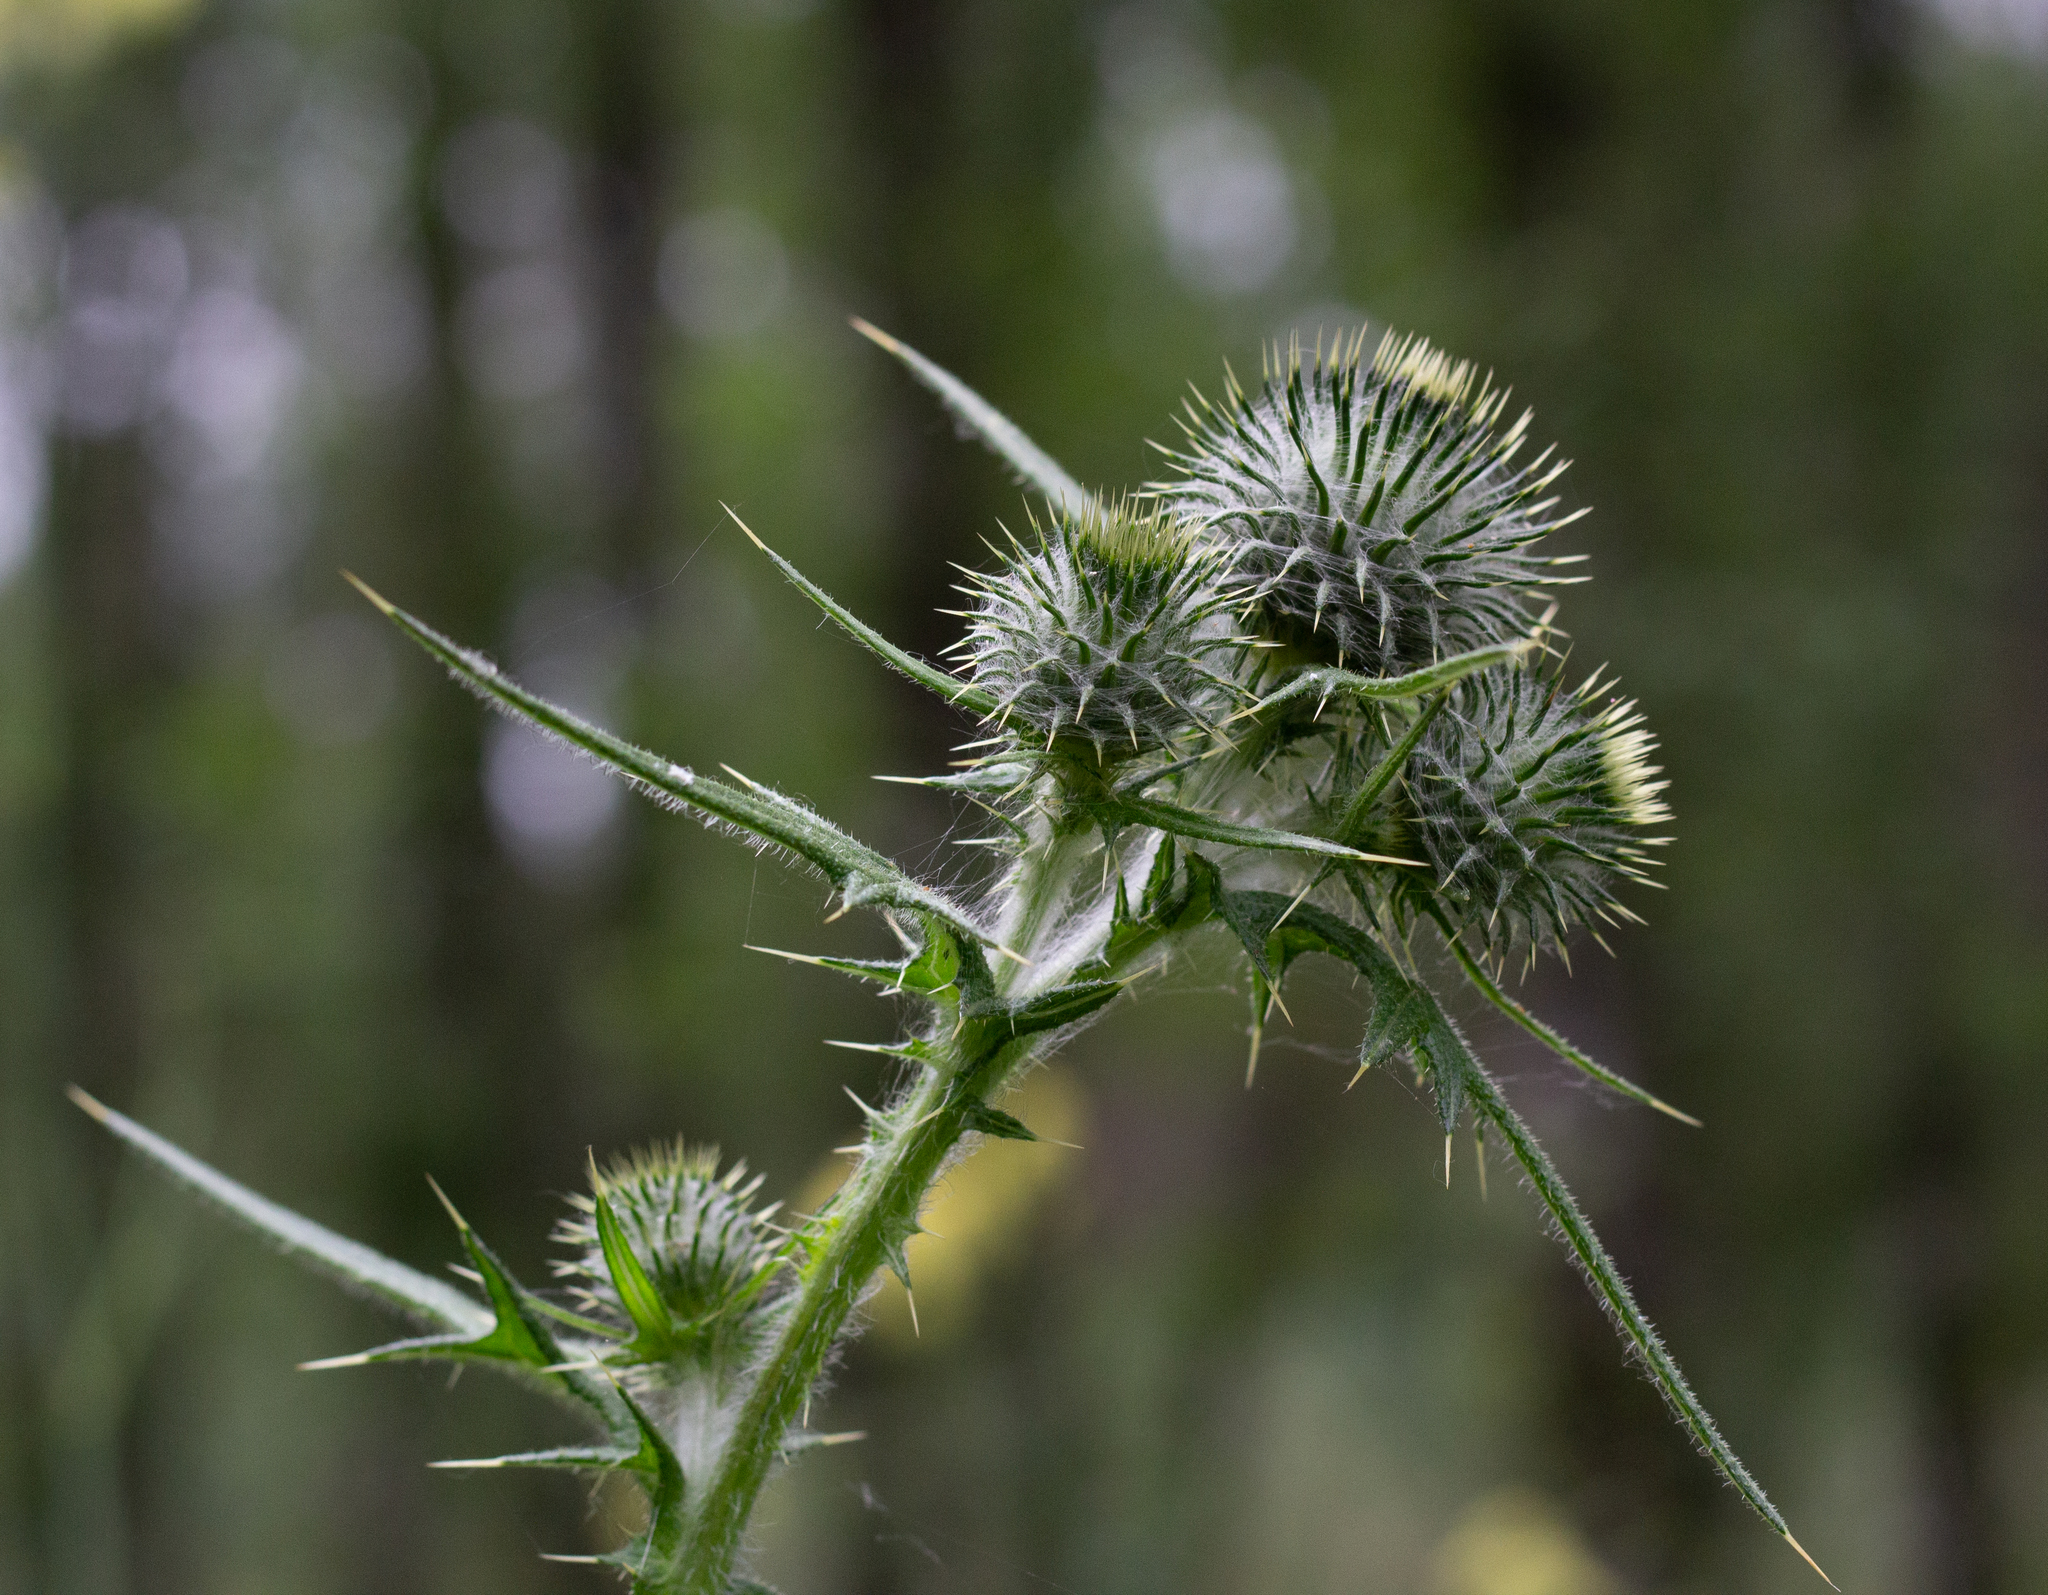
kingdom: Plantae
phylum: Tracheophyta
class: Magnoliopsida
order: Asterales
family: Asteraceae
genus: Cirsium
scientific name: Cirsium vulgare
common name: Bull thistle
